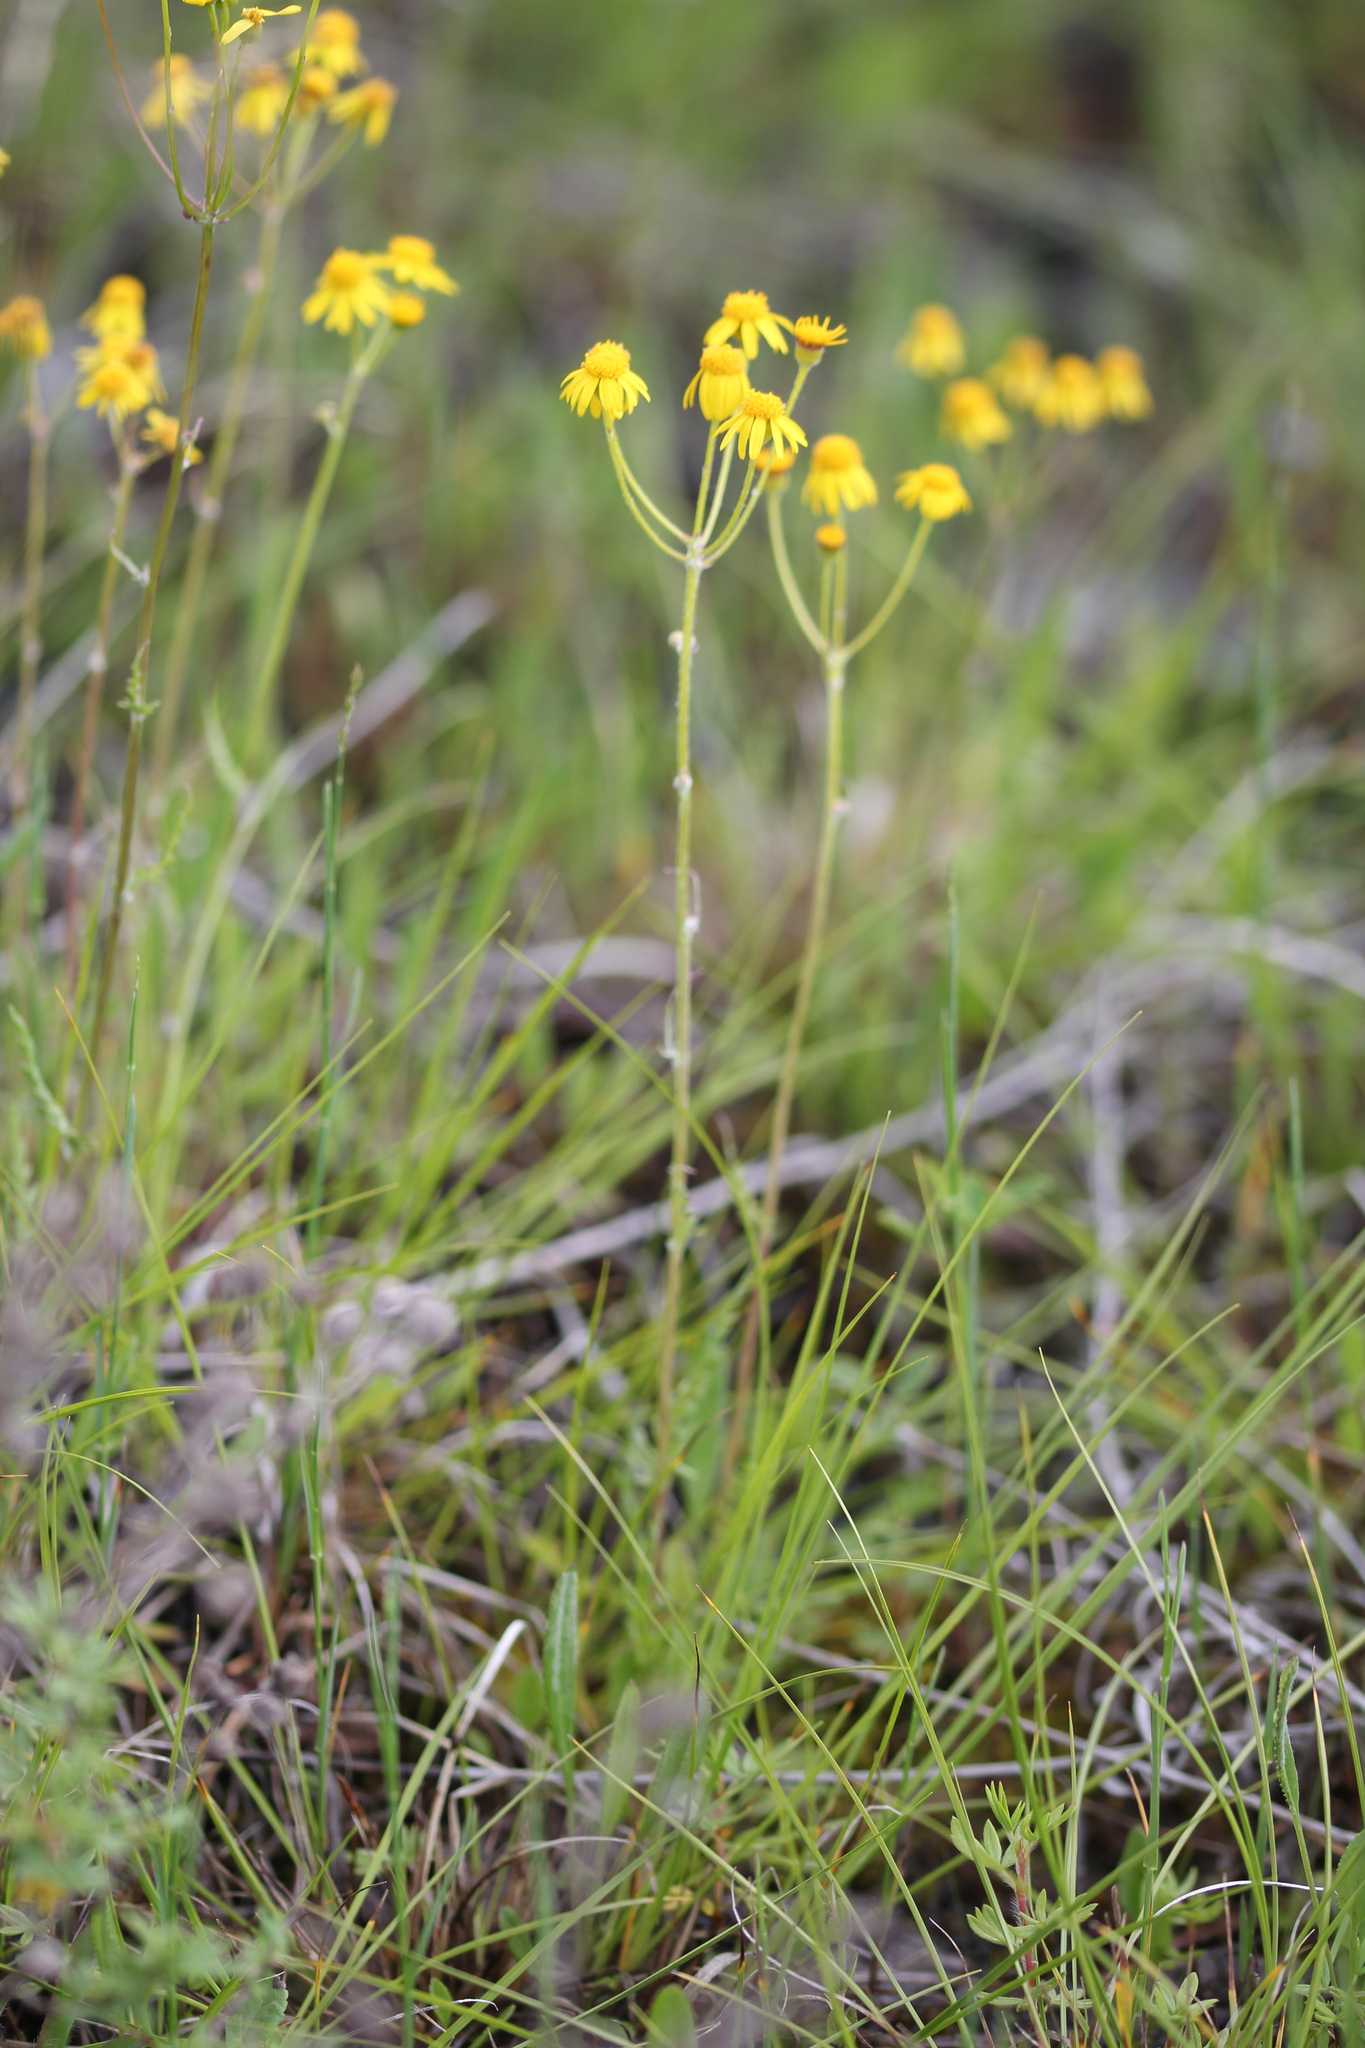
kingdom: Plantae
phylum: Tracheophyta
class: Magnoliopsida
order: Asterales
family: Asteraceae
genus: Packera
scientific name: Packera paupercula
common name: Balsam groundsel
